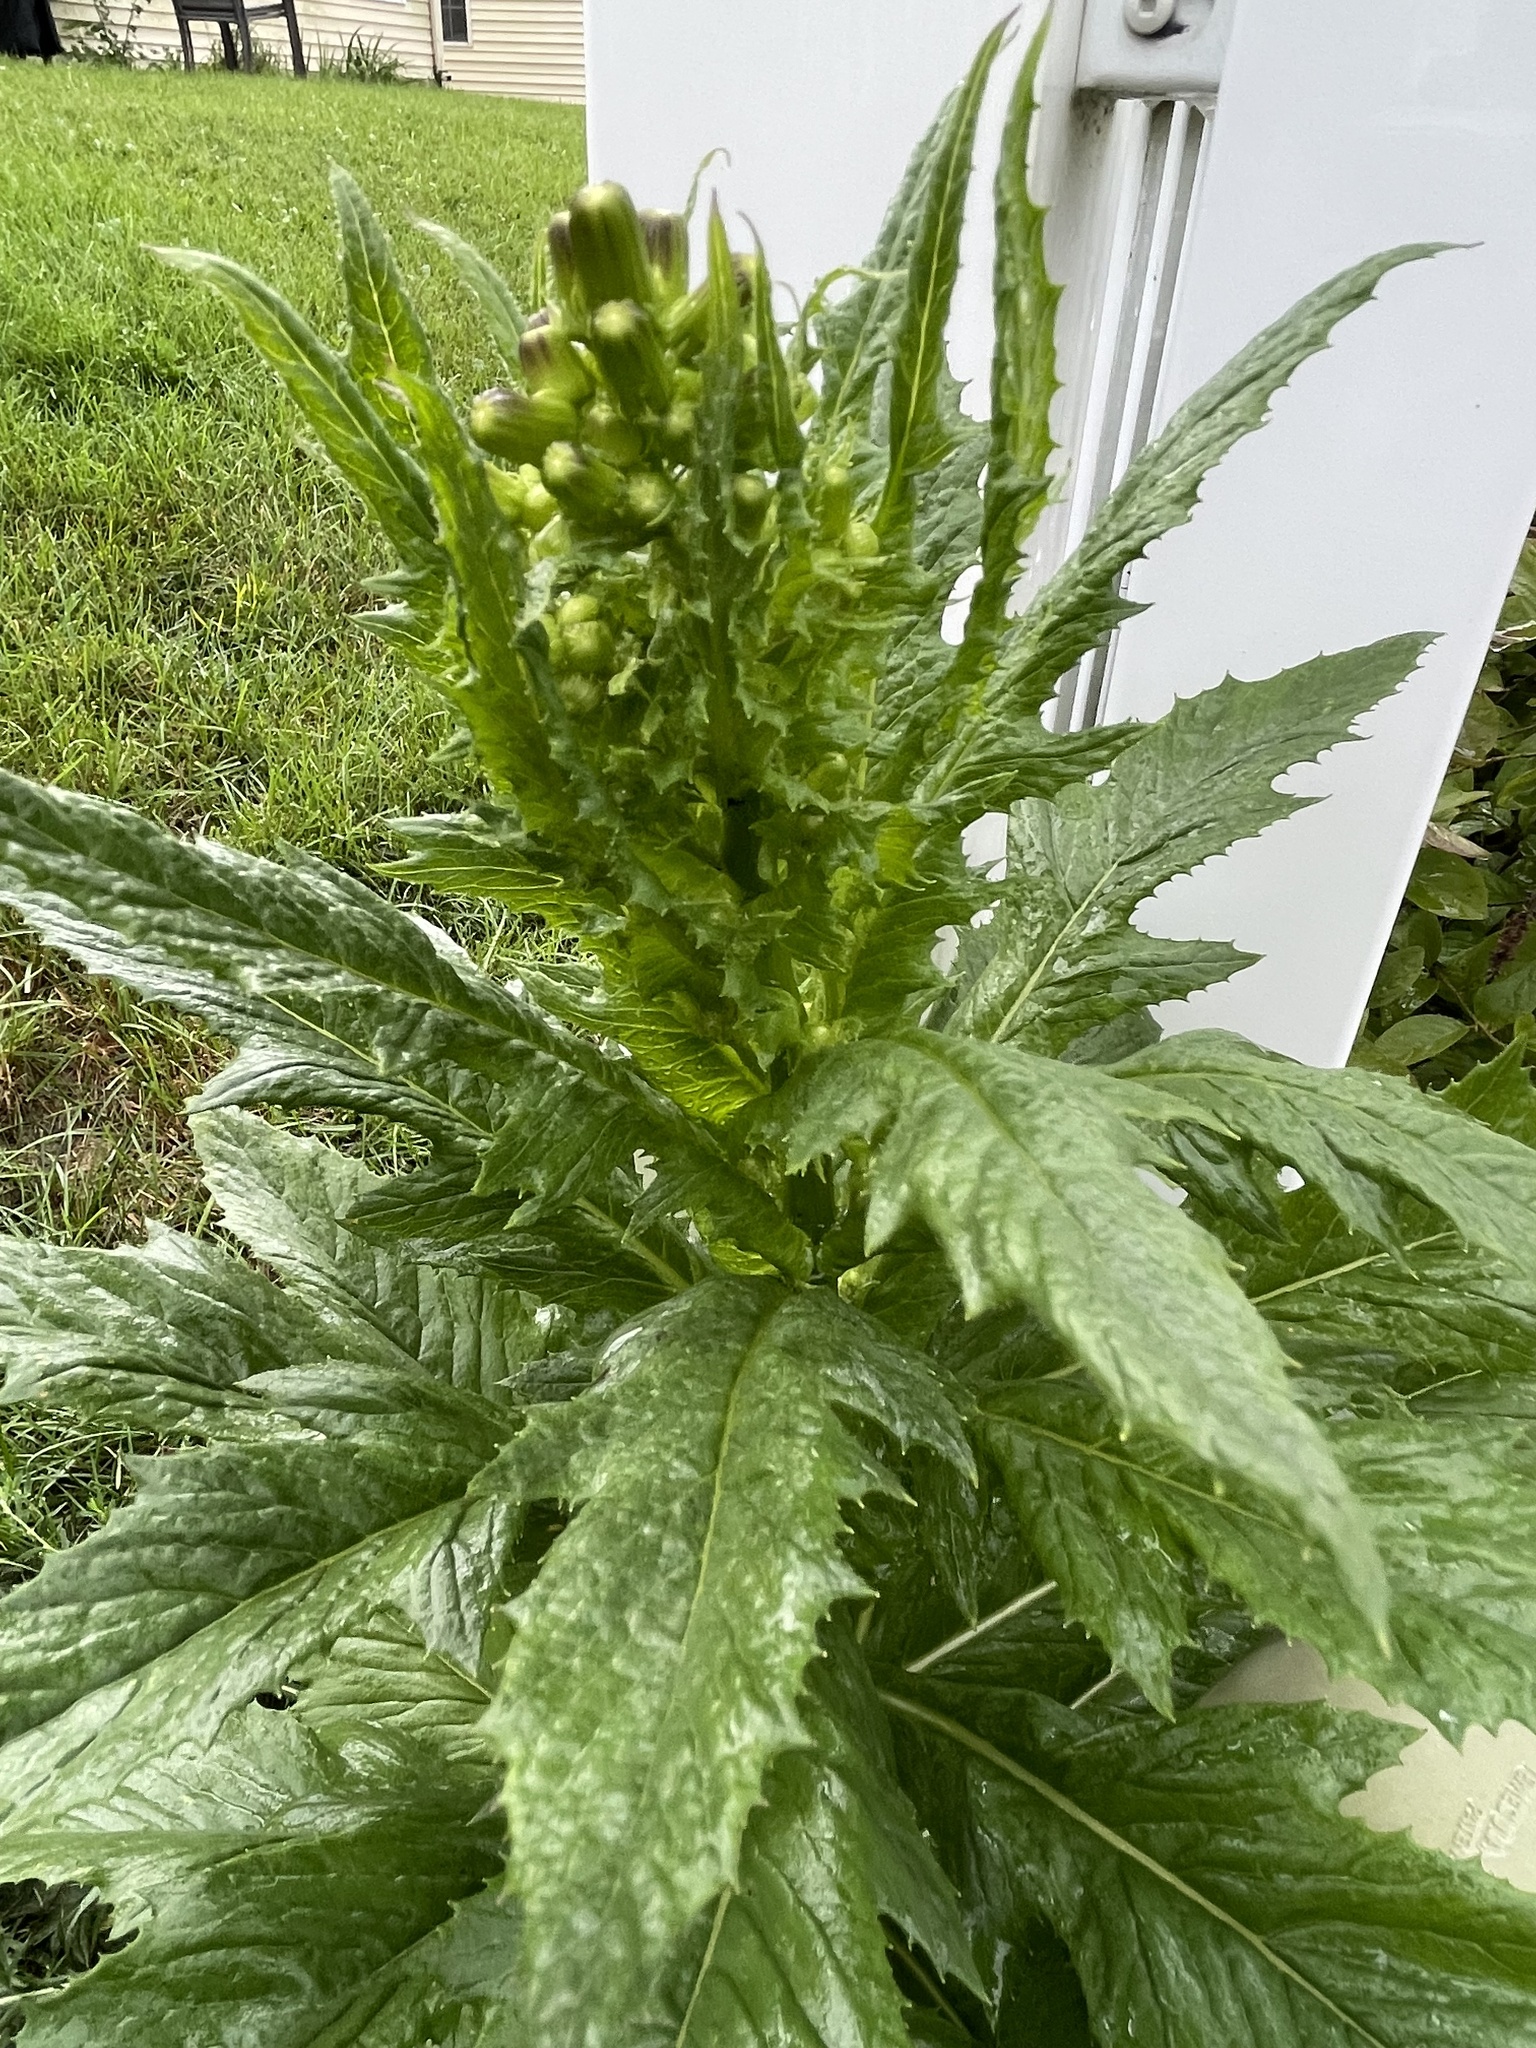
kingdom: Plantae
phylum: Tracheophyta
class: Magnoliopsida
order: Asterales
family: Asteraceae
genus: Erechtites
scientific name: Erechtites hieraciifolius
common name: American burnweed
